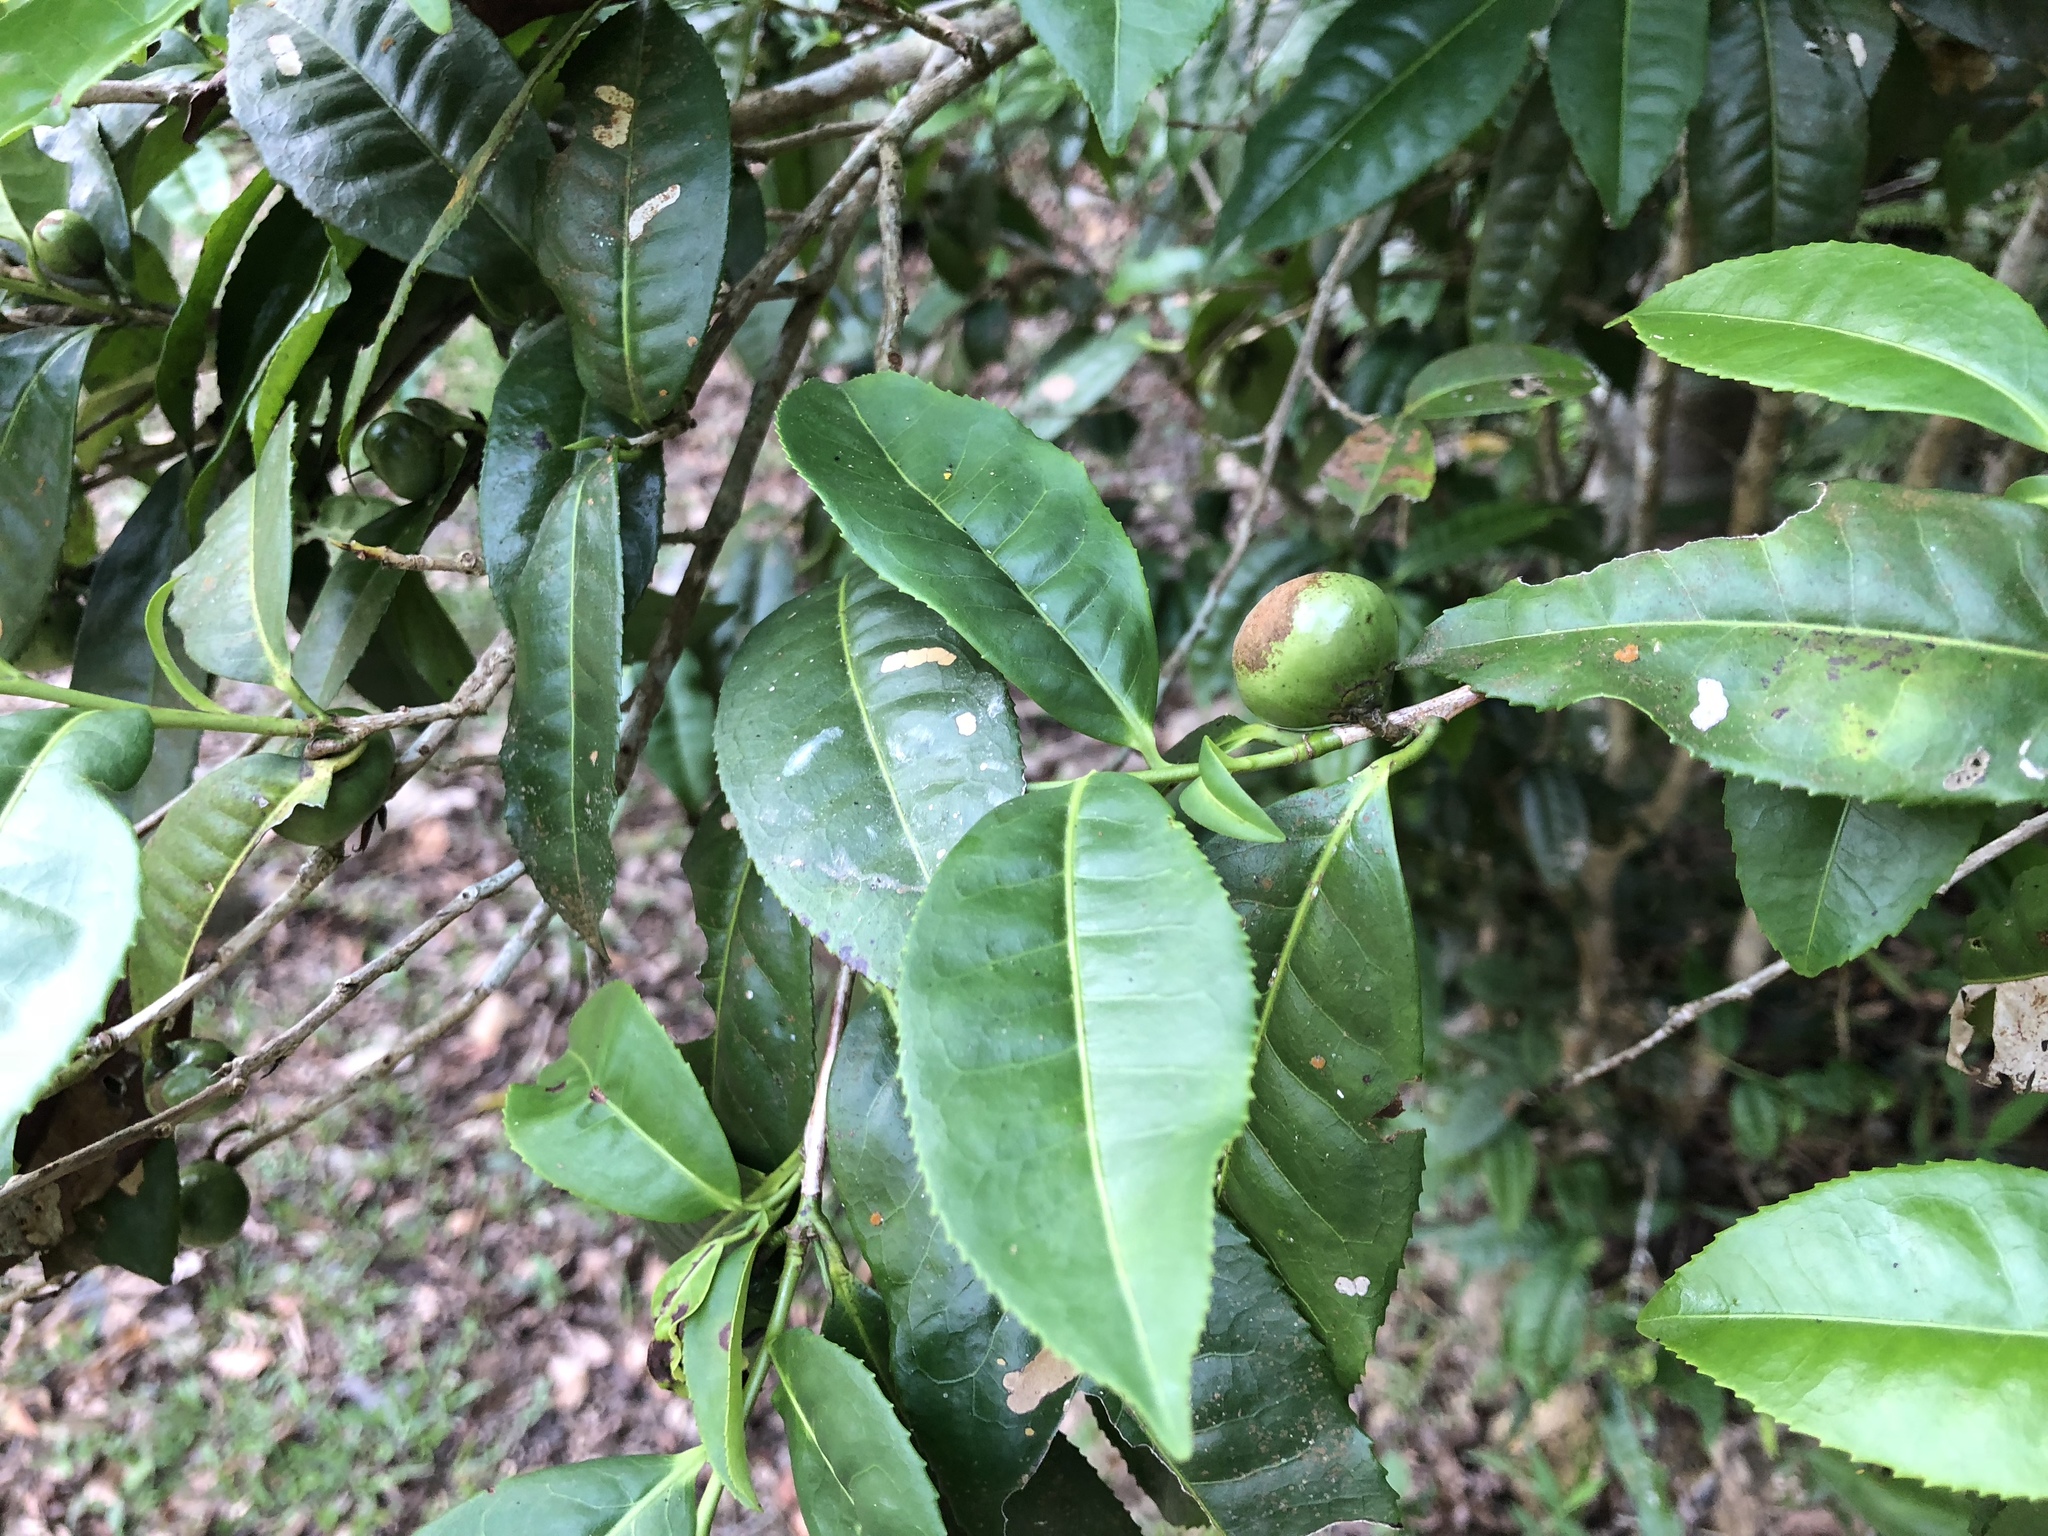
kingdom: Plantae
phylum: Tracheophyta
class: Magnoliopsida
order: Ericales
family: Theaceae
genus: Camellia
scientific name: Camellia furfuracea
